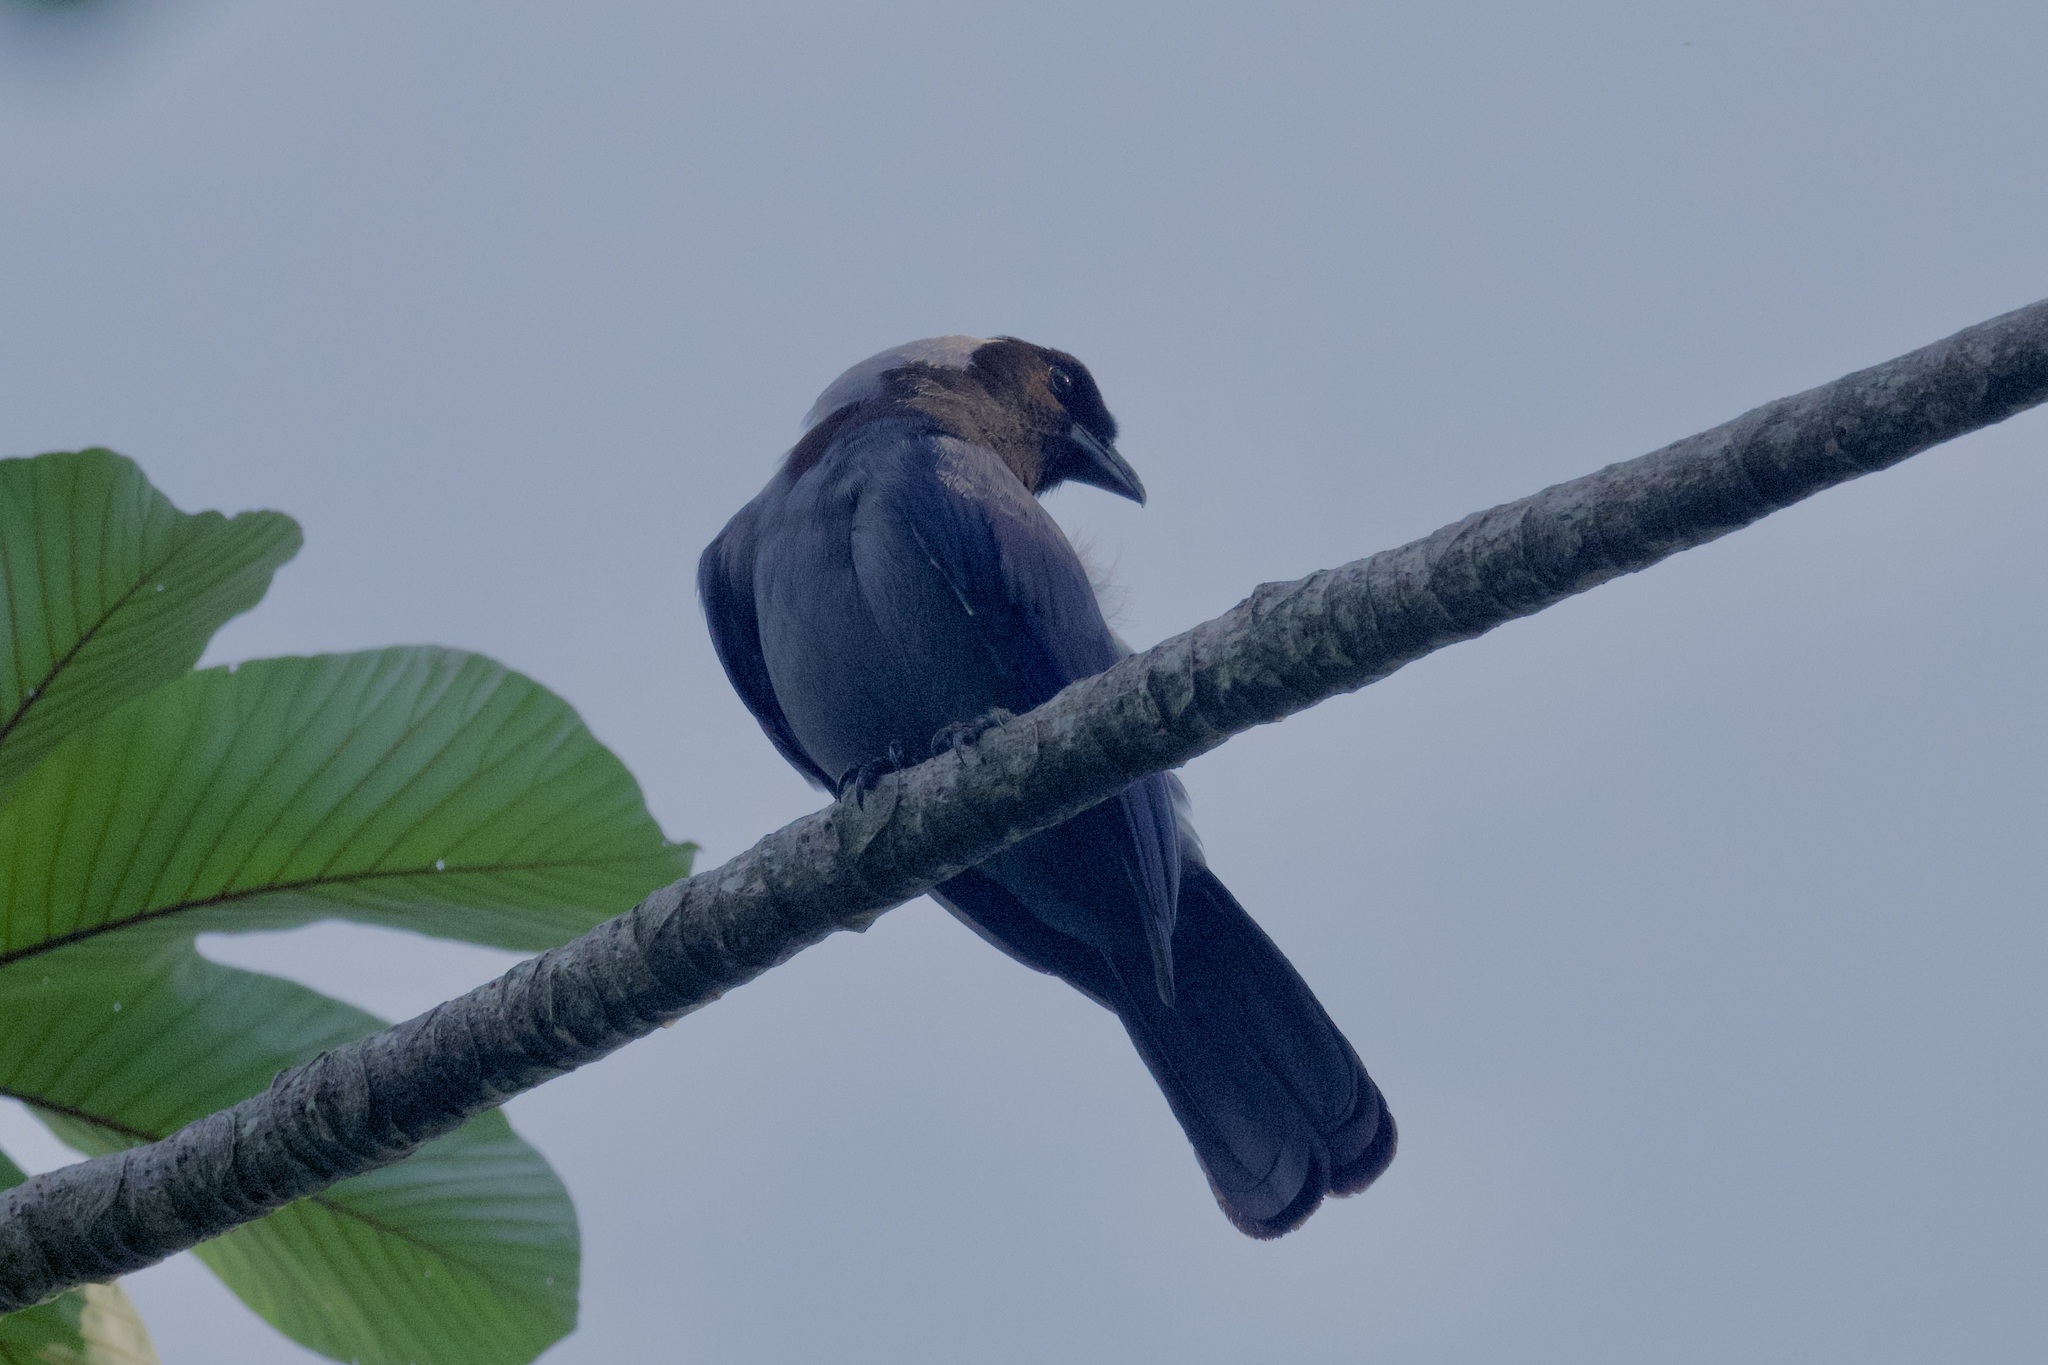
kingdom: Animalia
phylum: Chordata
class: Aves
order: Passeriformes
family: Corvidae
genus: Cyanocorax
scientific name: Cyanocorax violaceus
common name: Violaceous jay
